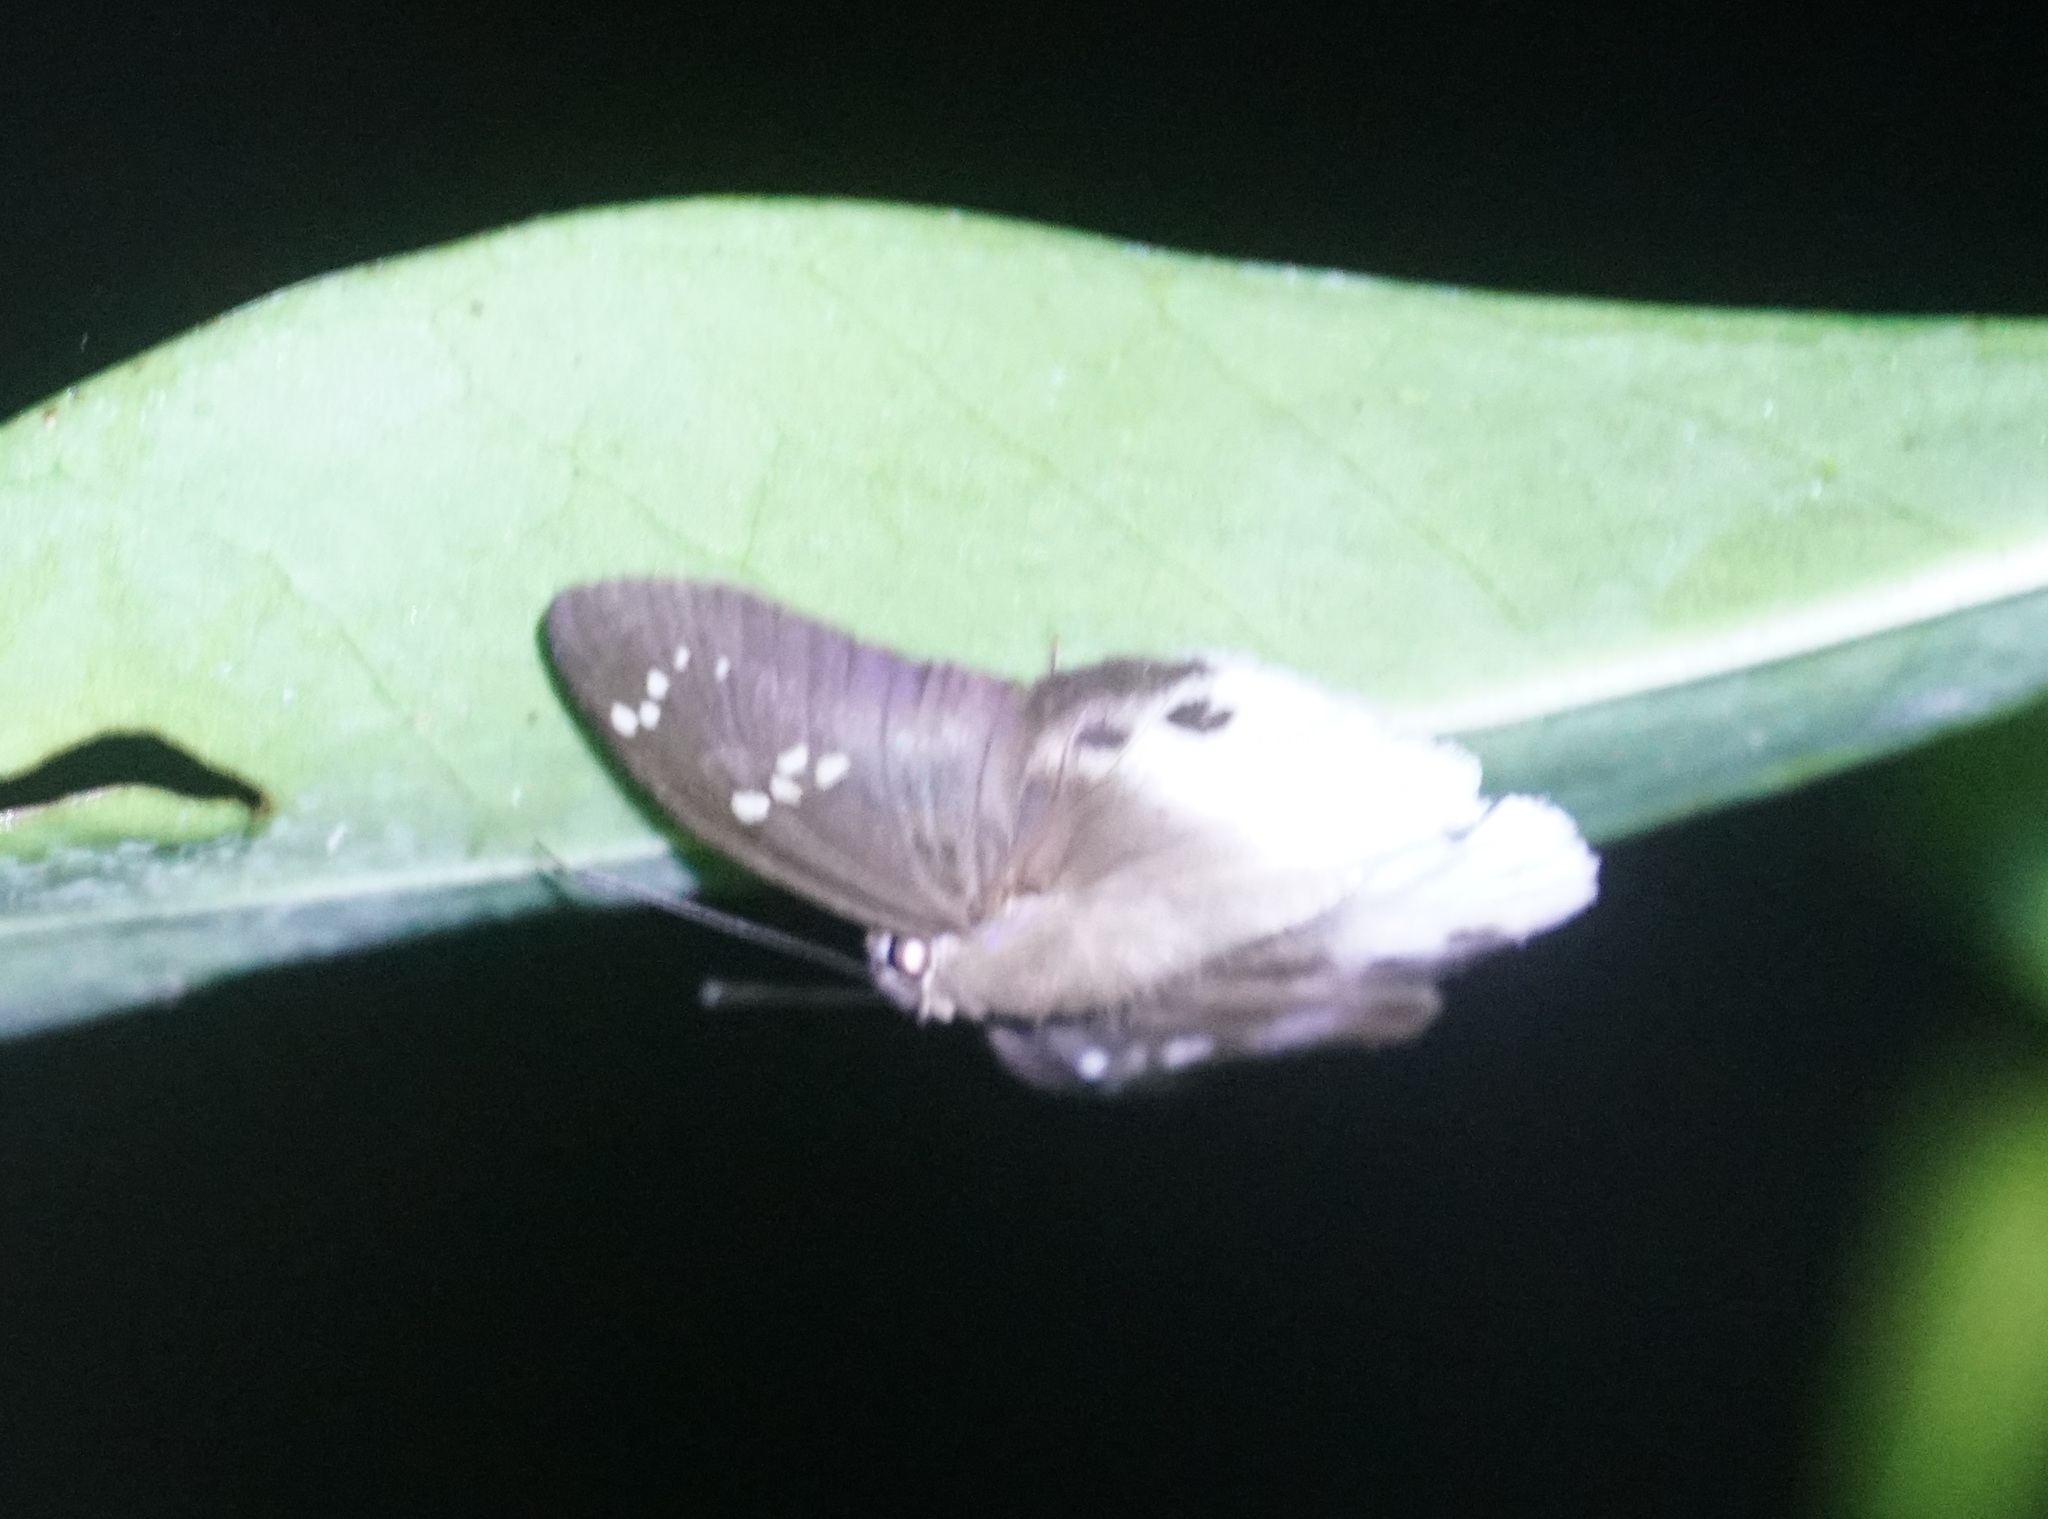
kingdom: Animalia
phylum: Arthropoda
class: Insecta
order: Lepidoptera
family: Hesperiidae
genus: Tagiades
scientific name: Tagiades japetus
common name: Pied flat
